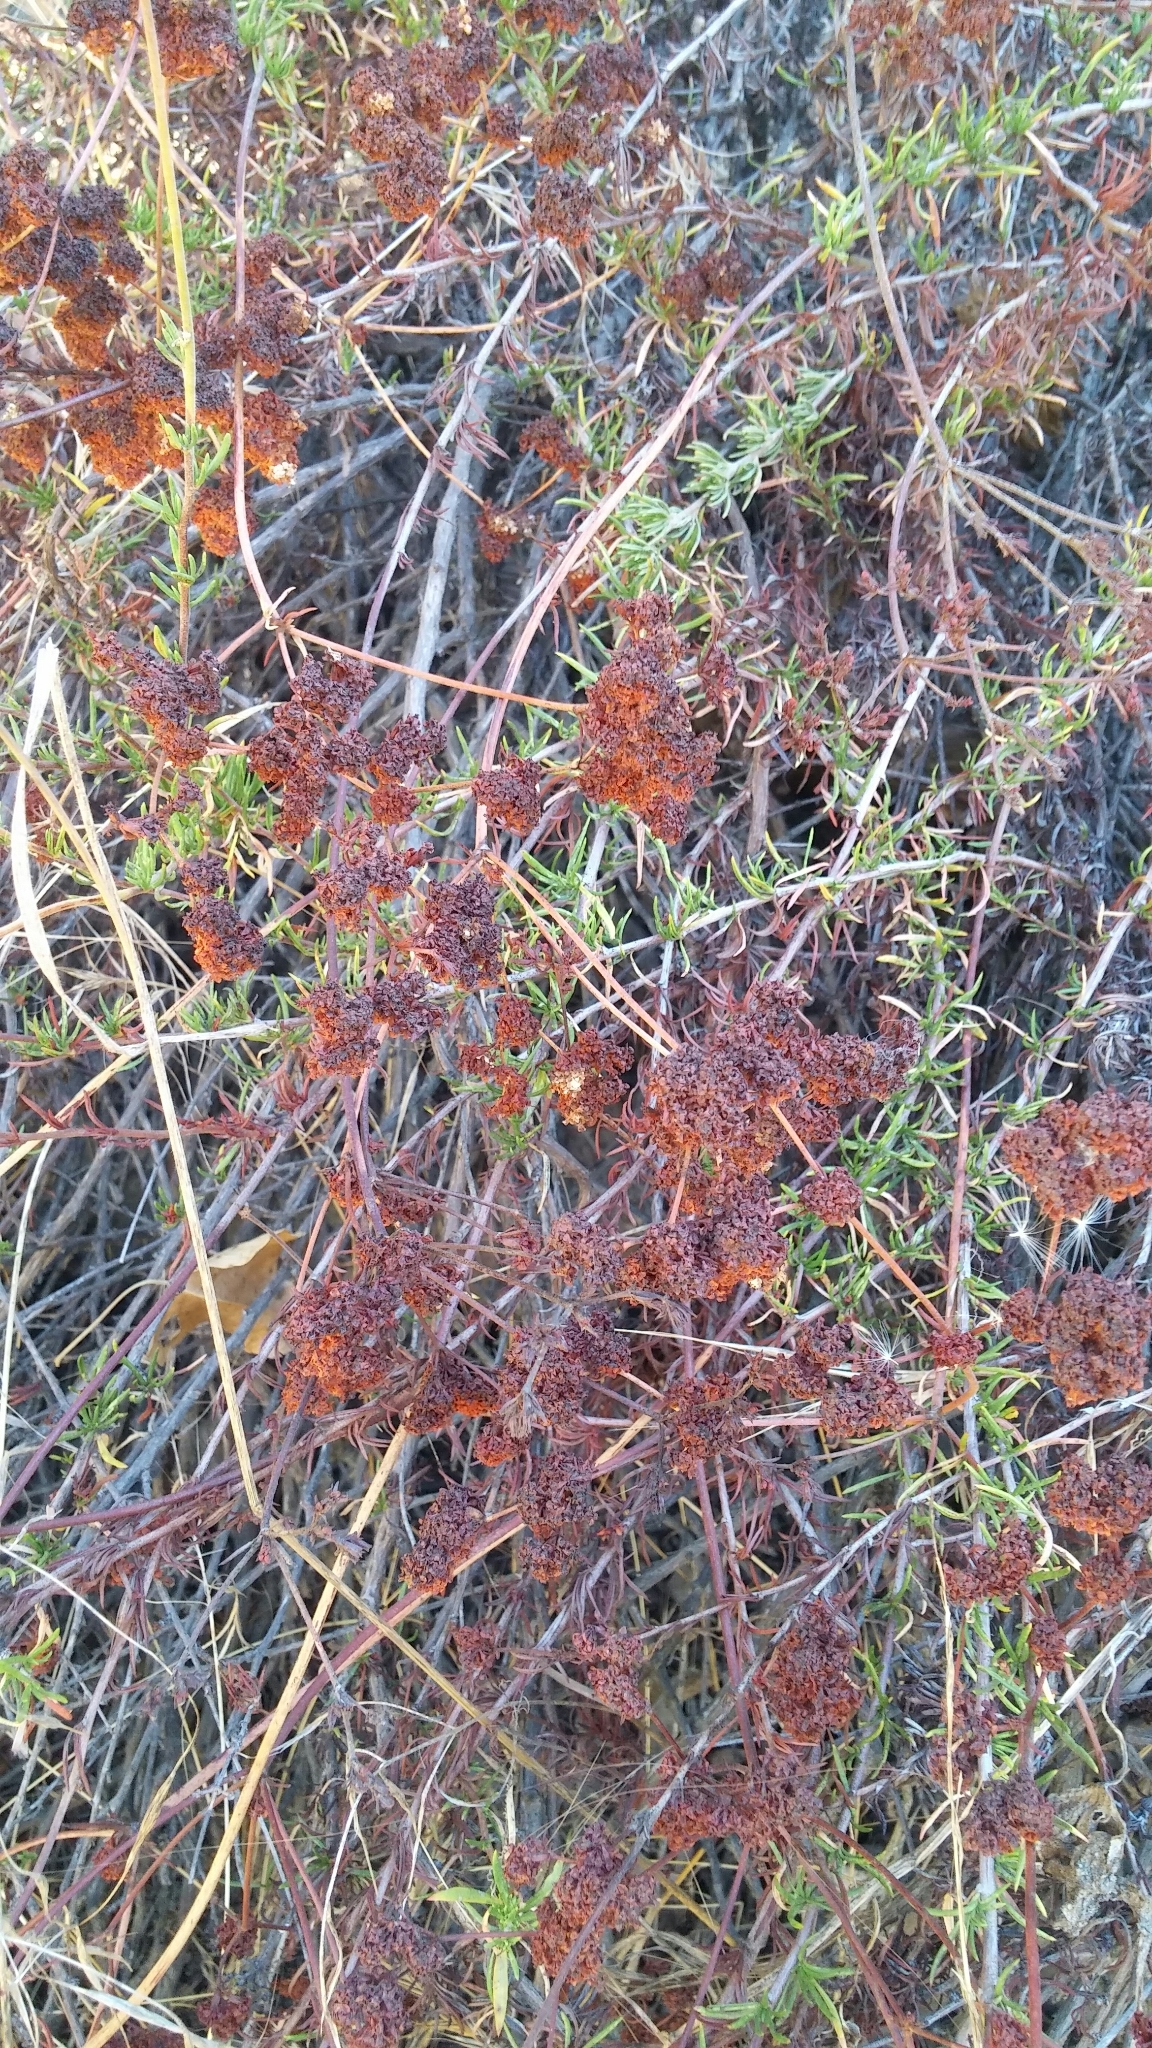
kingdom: Plantae
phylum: Tracheophyta
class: Magnoliopsida
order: Caryophyllales
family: Polygonaceae
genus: Eriogonum
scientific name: Eriogonum fasciculatum
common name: California wild buckwheat
